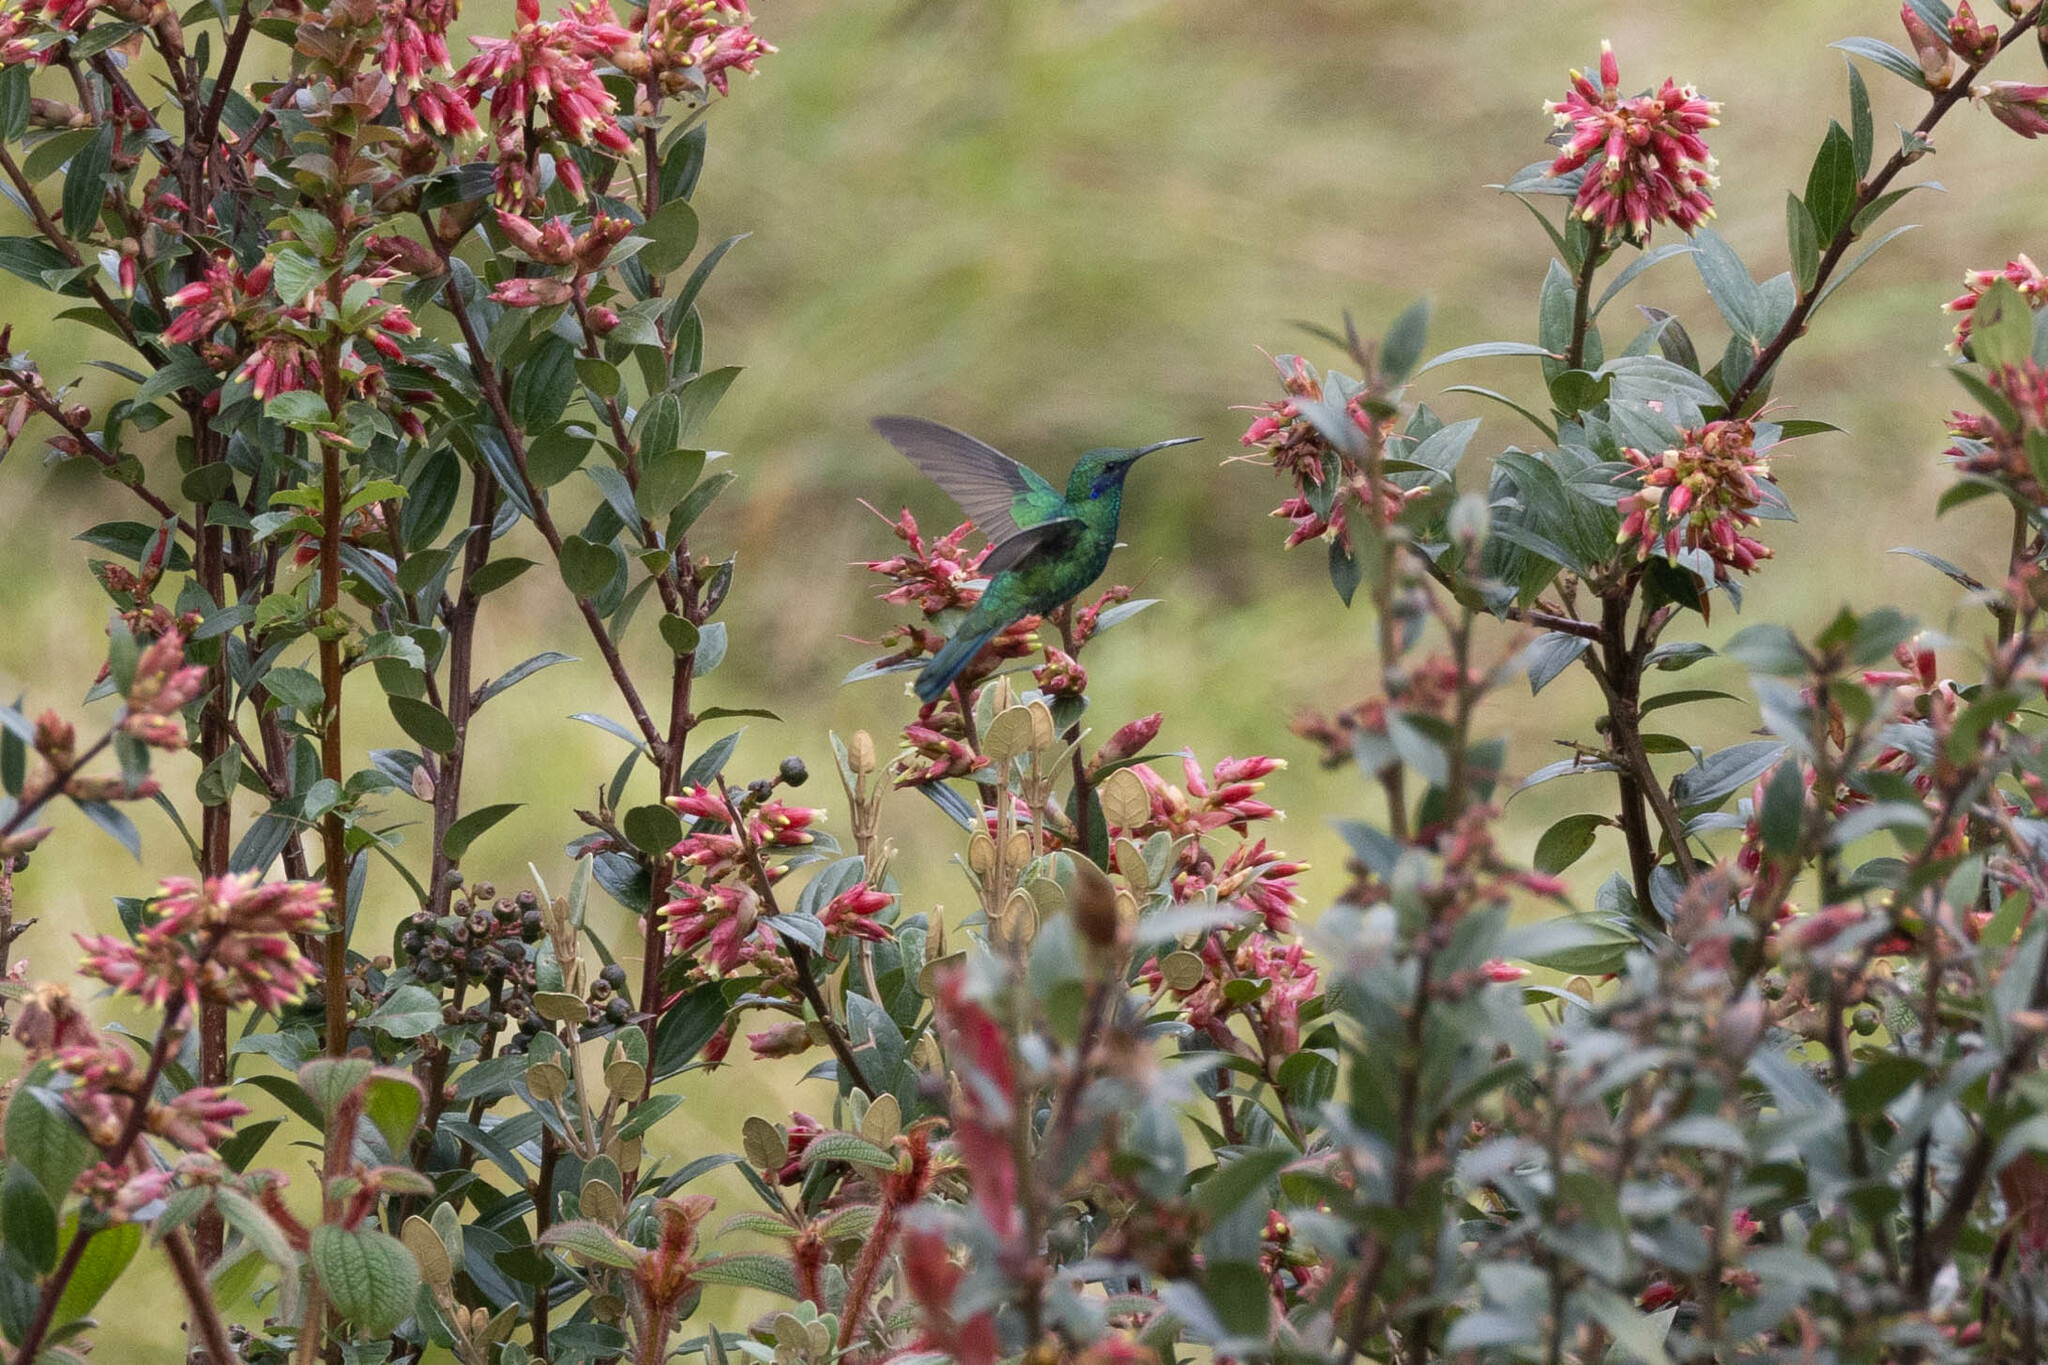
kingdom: Animalia
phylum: Chordata
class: Aves
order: Apodiformes
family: Trochilidae
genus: Colibri
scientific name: Colibri coruscans
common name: Sparkling violetear
